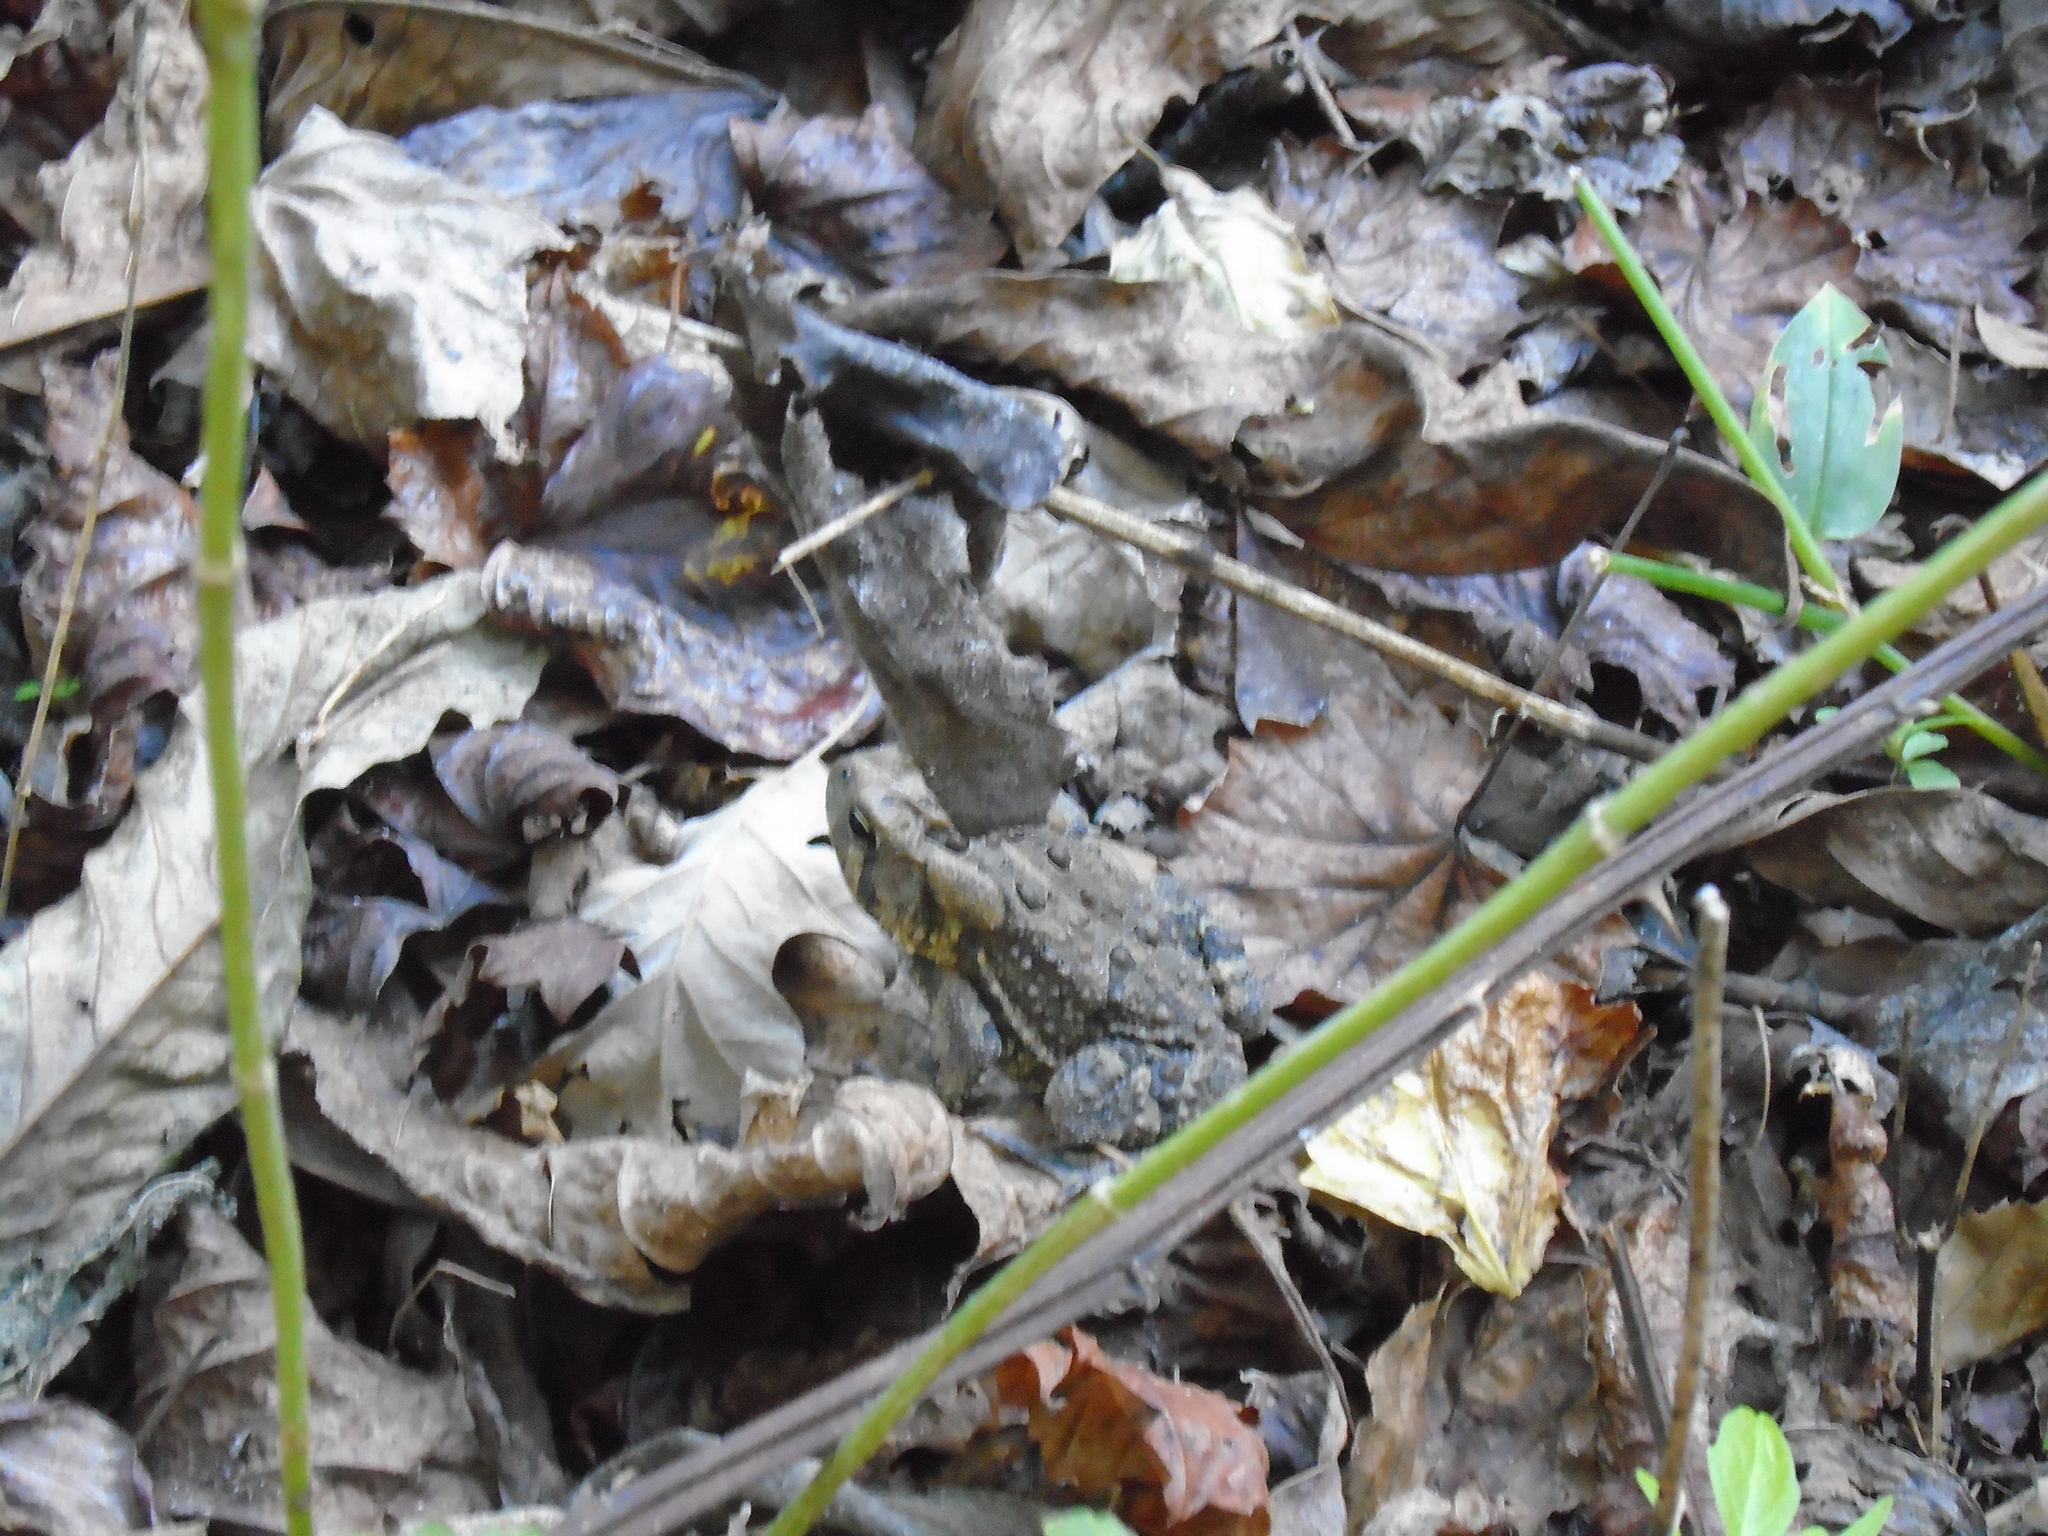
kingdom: Animalia
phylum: Chordata
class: Amphibia
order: Anura
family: Bufonidae
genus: Anaxyrus
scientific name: Anaxyrus terrestris
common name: Southern toad
